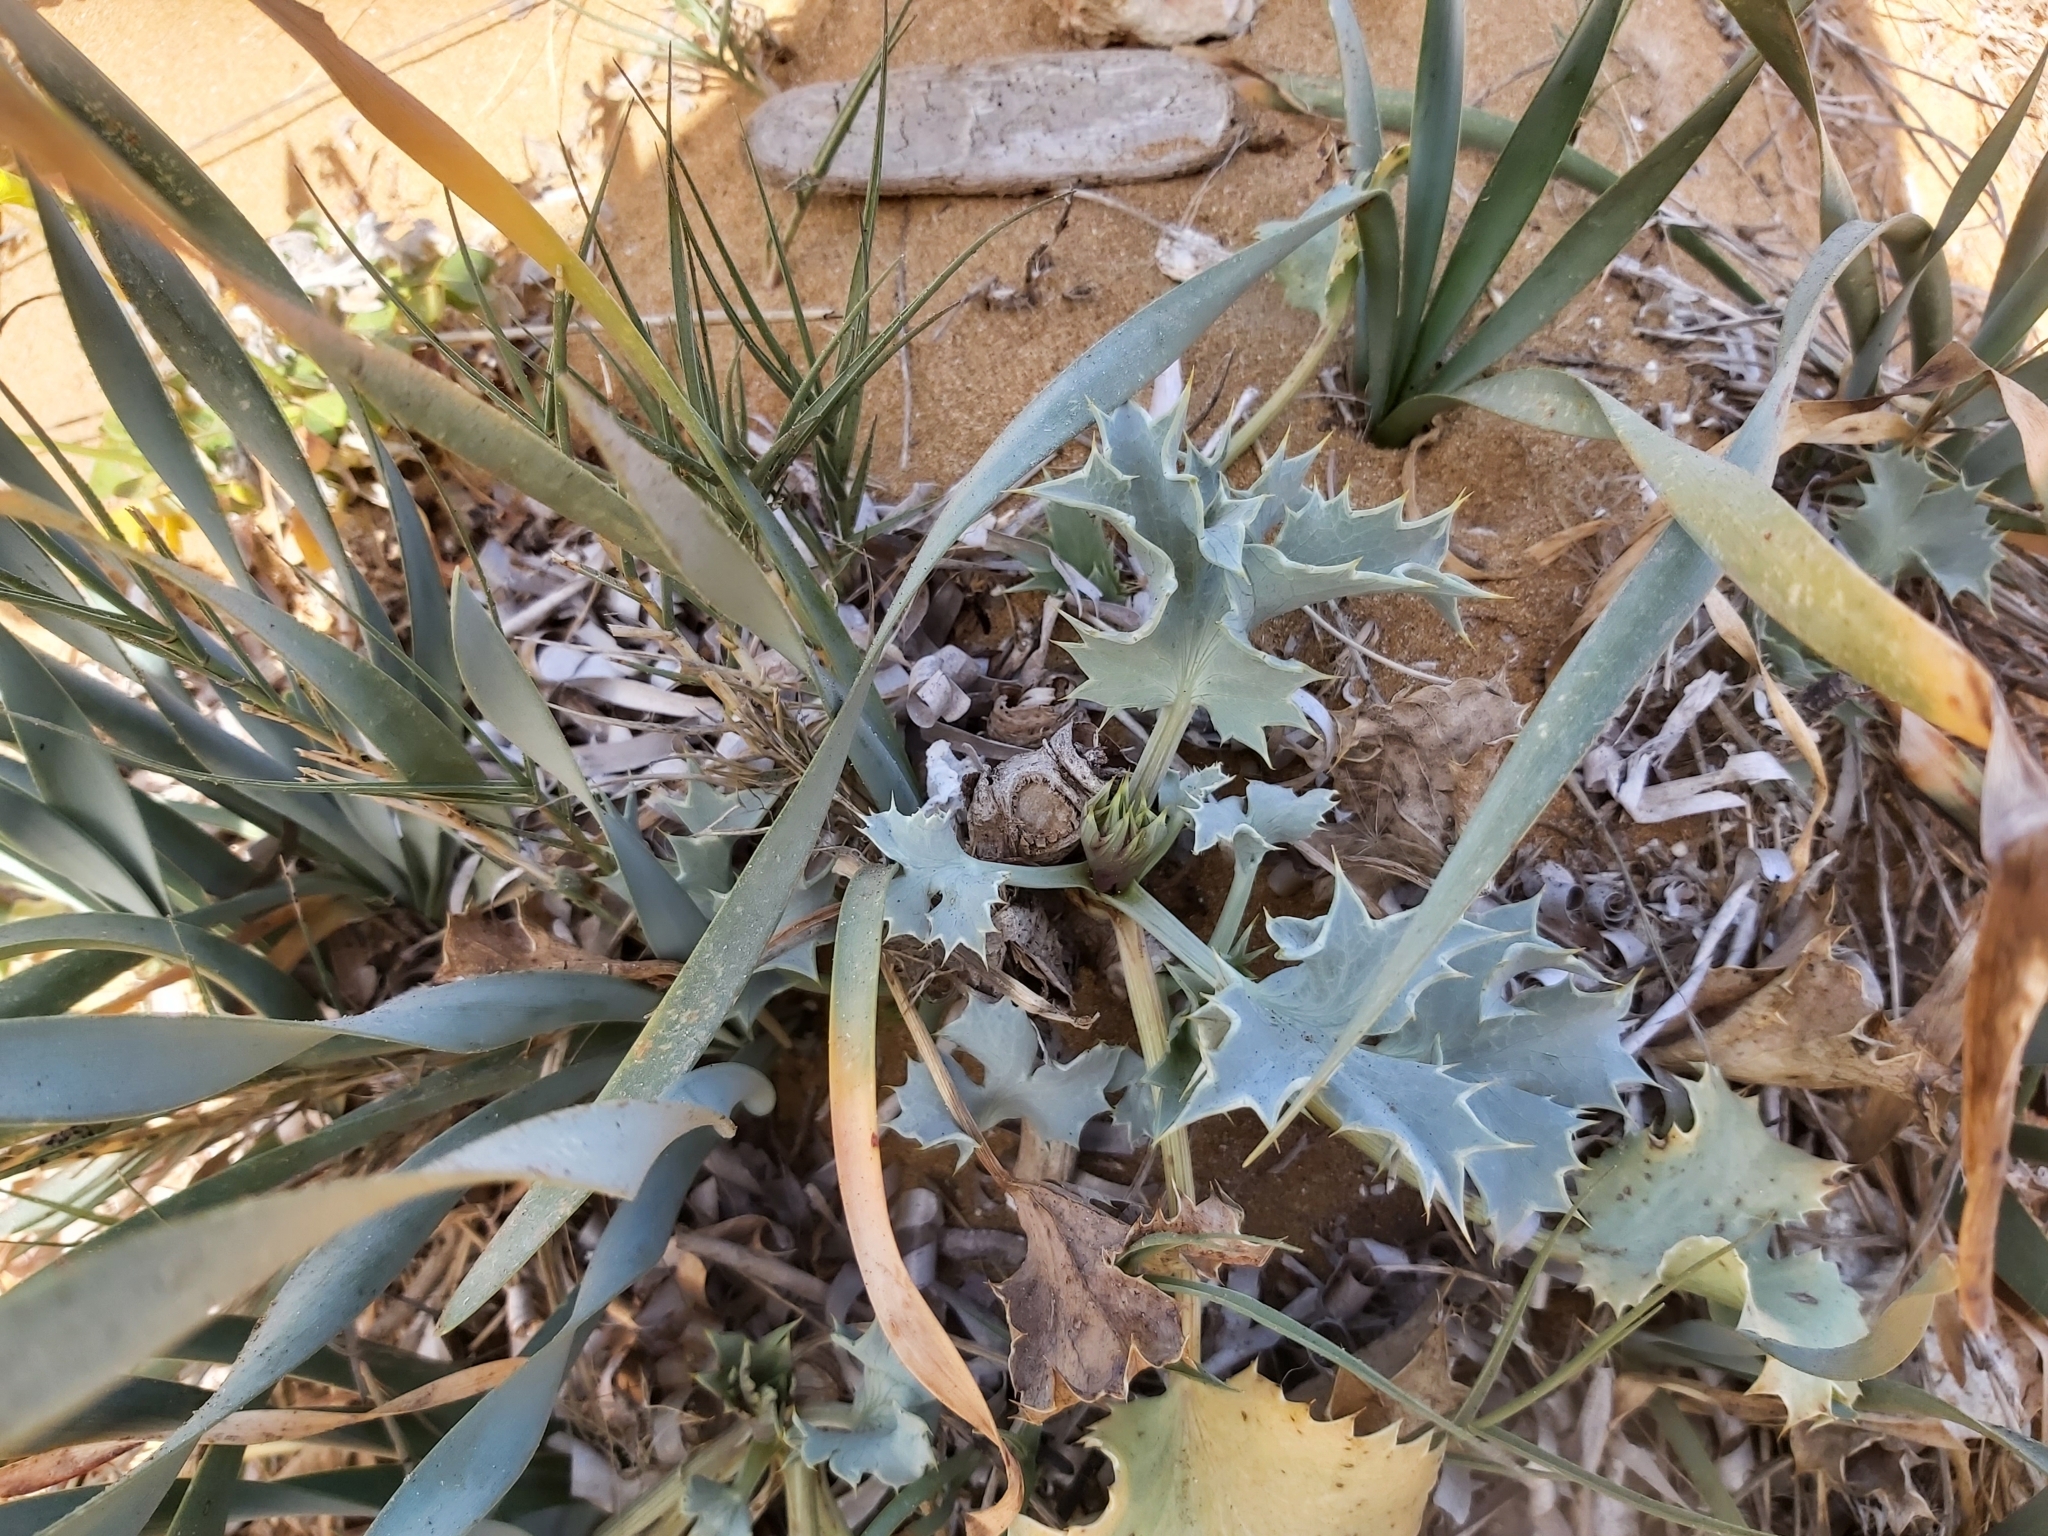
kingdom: Plantae
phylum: Tracheophyta
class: Magnoliopsida
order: Apiales
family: Apiaceae
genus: Eryngium
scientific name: Eryngium maritimum
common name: Sea-holly
